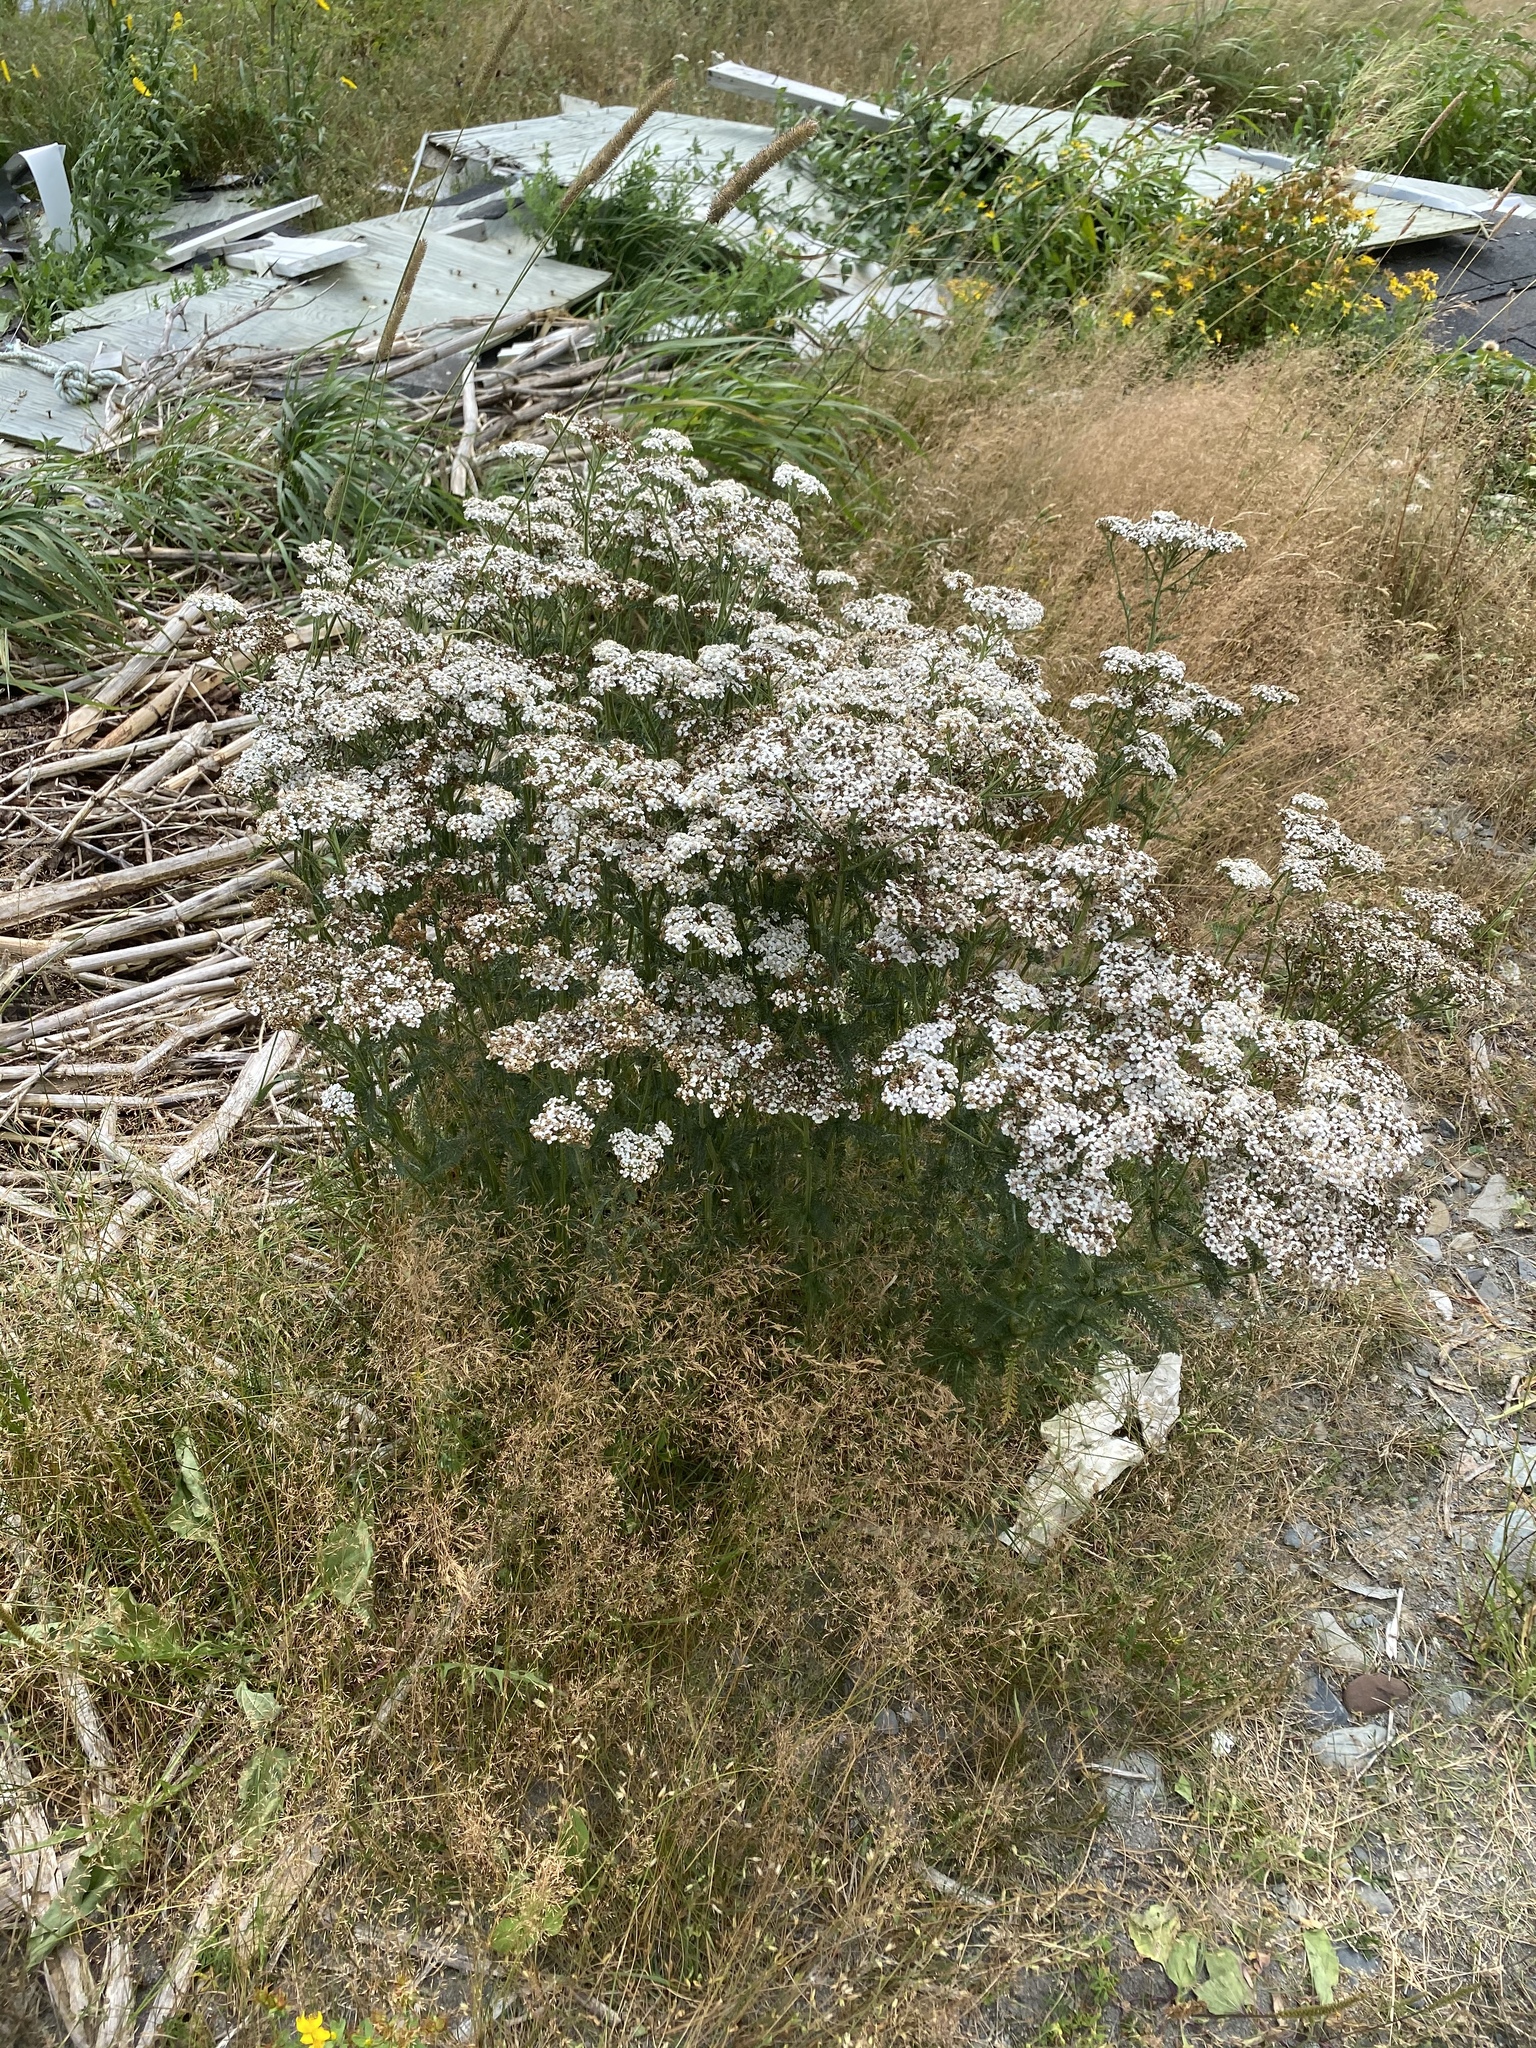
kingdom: Plantae
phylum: Tracheophyta
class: Magnoliopsida
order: Asterales
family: Asteraceae
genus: Achillea
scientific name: Achillea millefolium
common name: Yarrow
